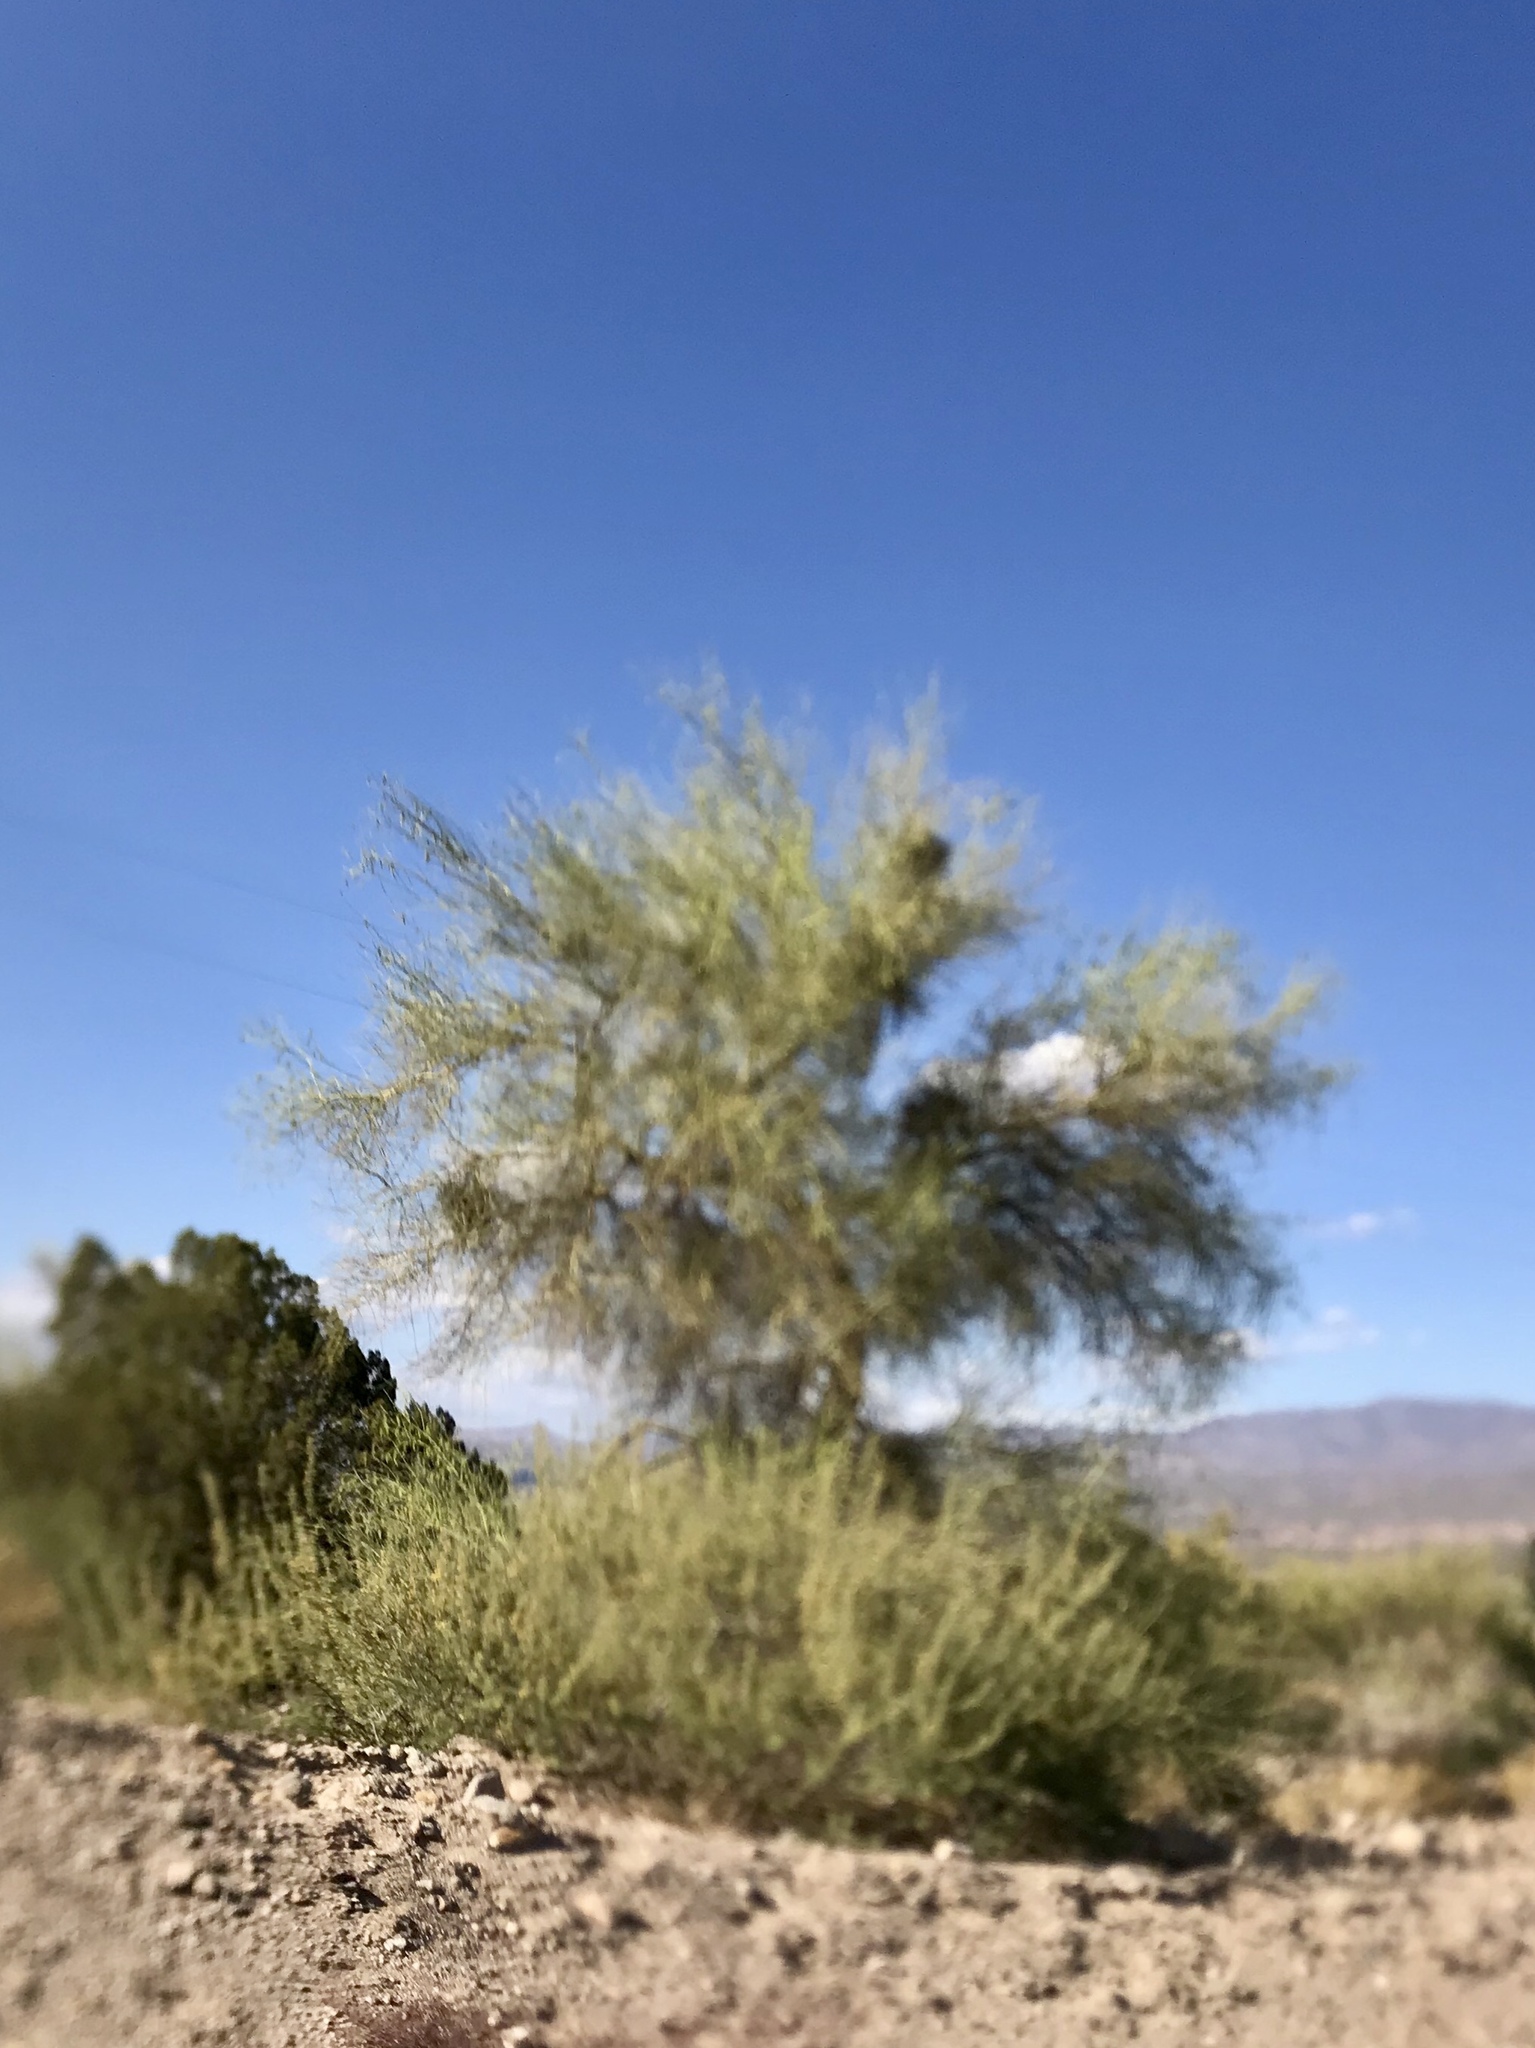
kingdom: Plantae
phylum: Tracheophyta
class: Magnoliopsida
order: Fabales
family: Fabaceae
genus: Parkinsonia
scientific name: Parkinsonia florida
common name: Blue paloverde
